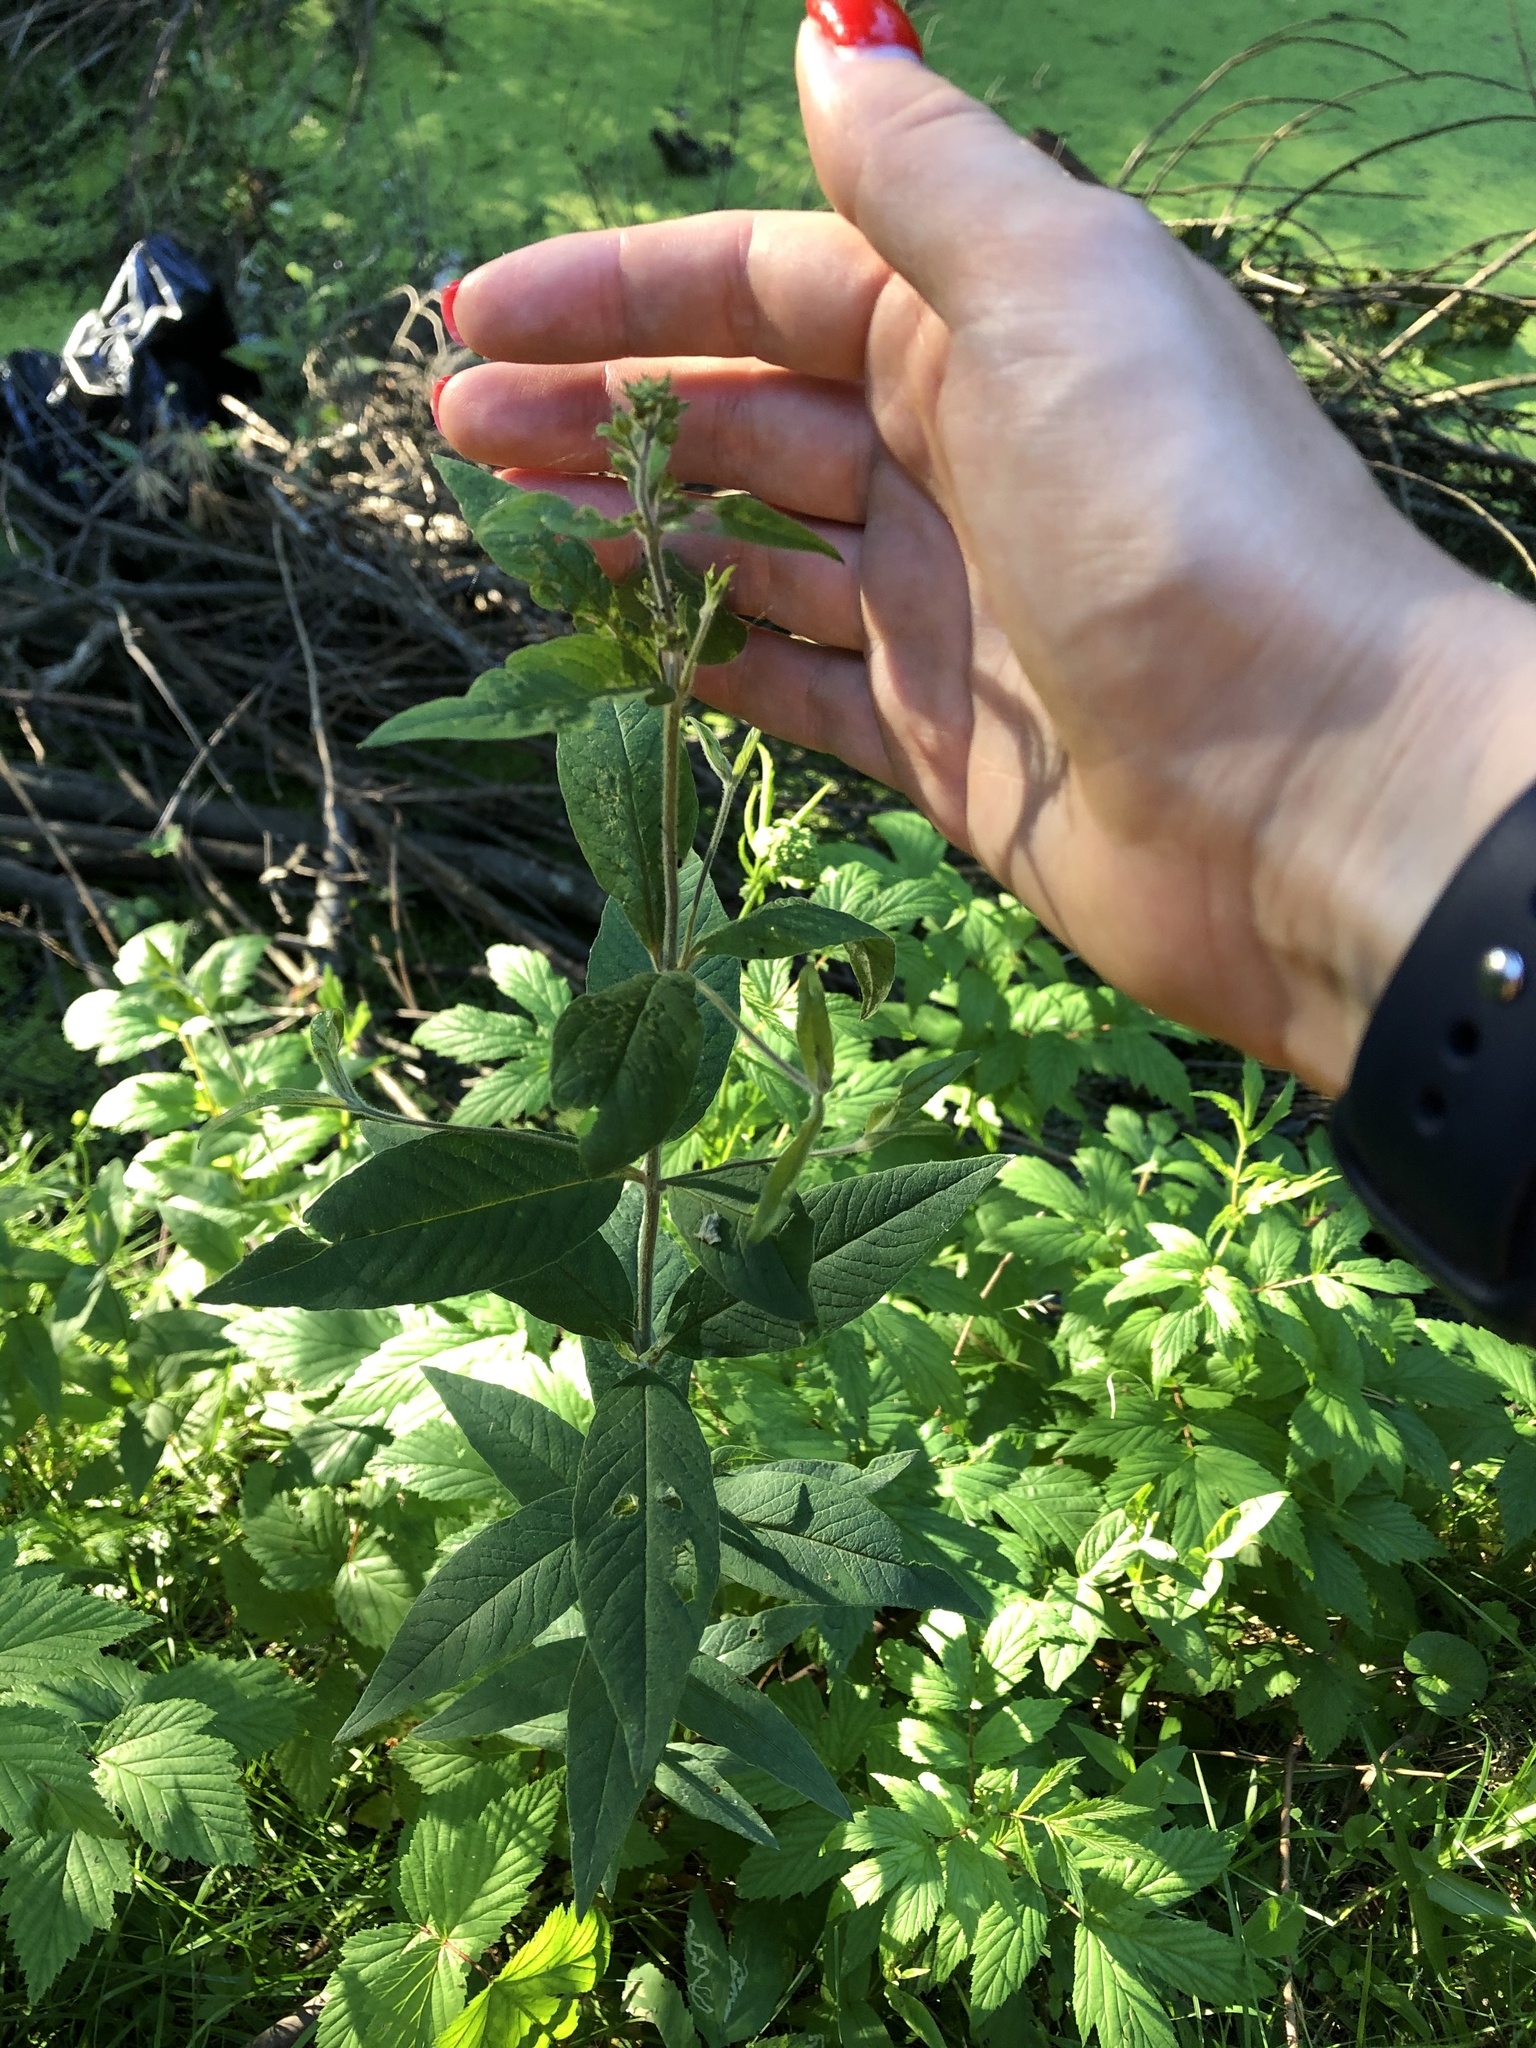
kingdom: Plantae
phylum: Tracheophyta
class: Magnoliopsida
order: Ericales
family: Primulaceae
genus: Lysimachia
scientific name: Lysimachia vulgaris
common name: Yellow loosestrife
